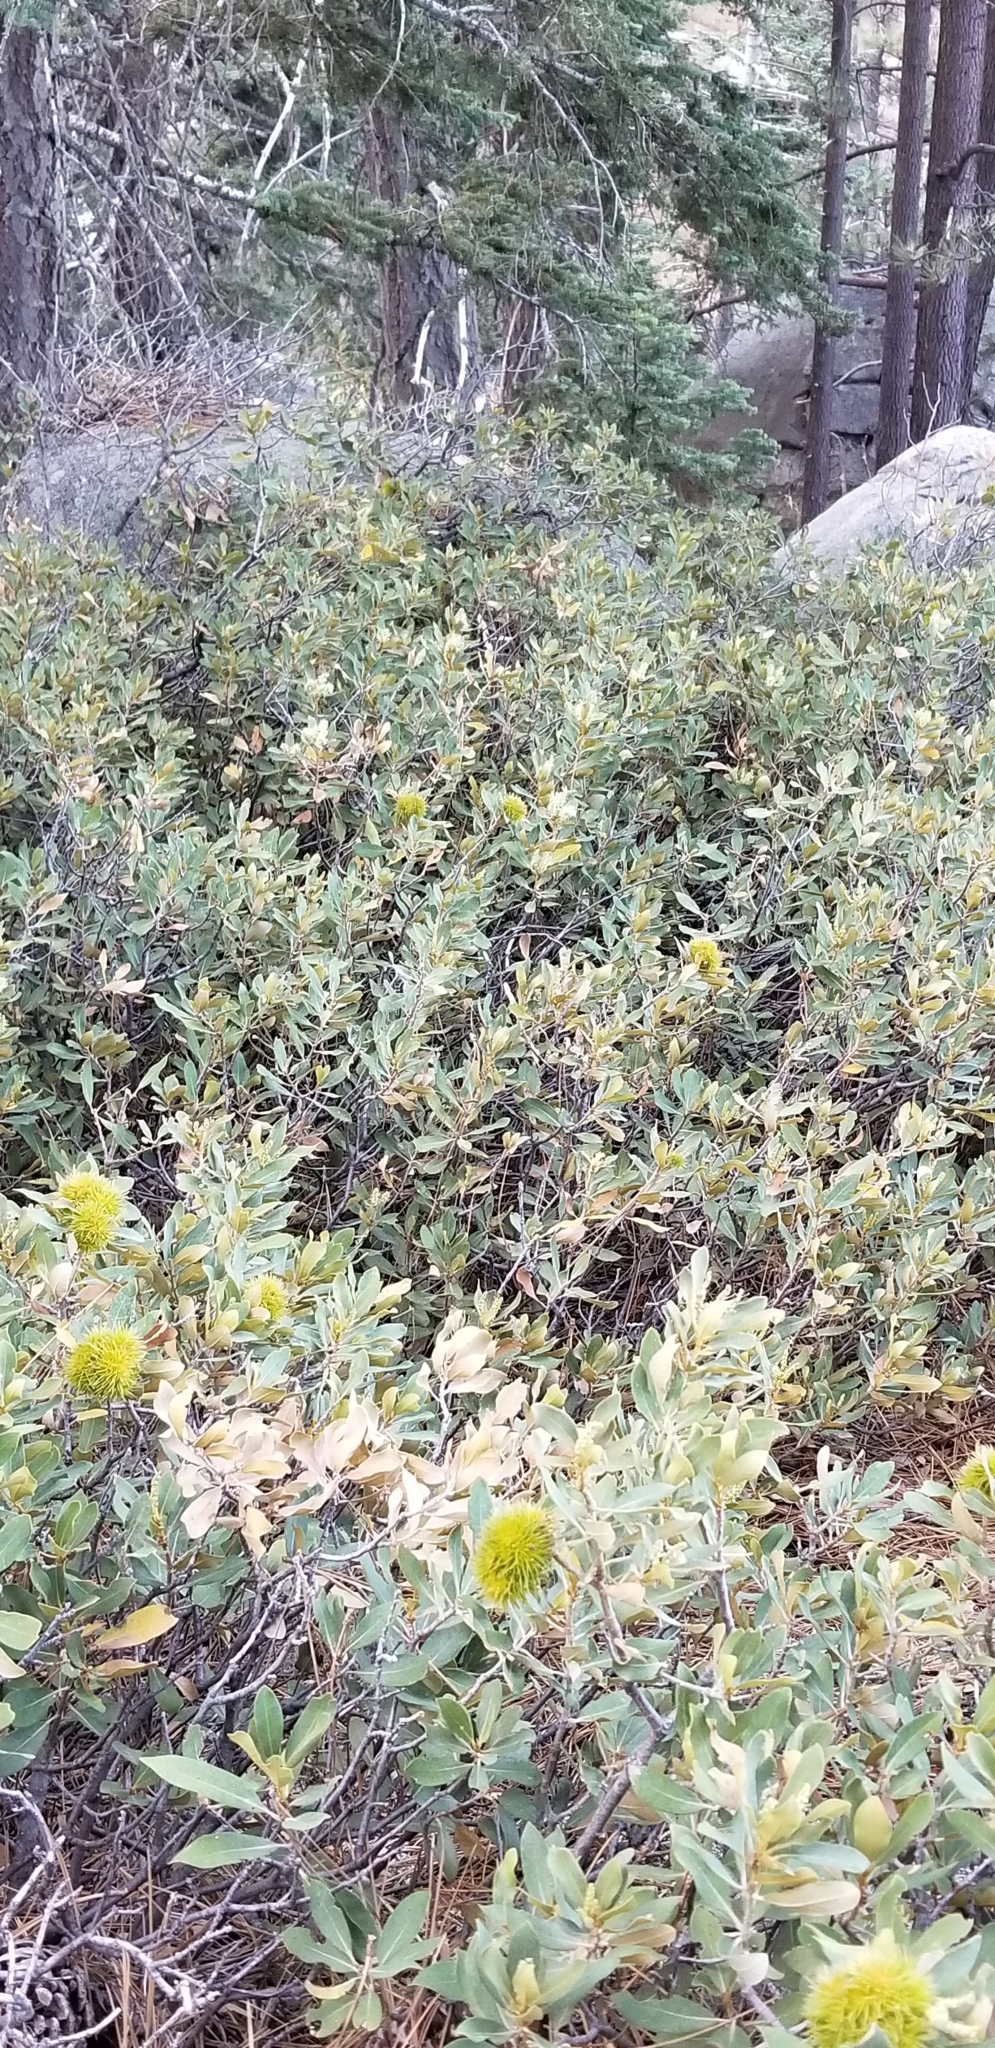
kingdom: Plantae
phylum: Tracheophyta
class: Magnoliopsida
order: Fagales
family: Fagaceae
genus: Chrysolepis
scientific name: Chrysolepis sempervirens
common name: Bush chinquapin
